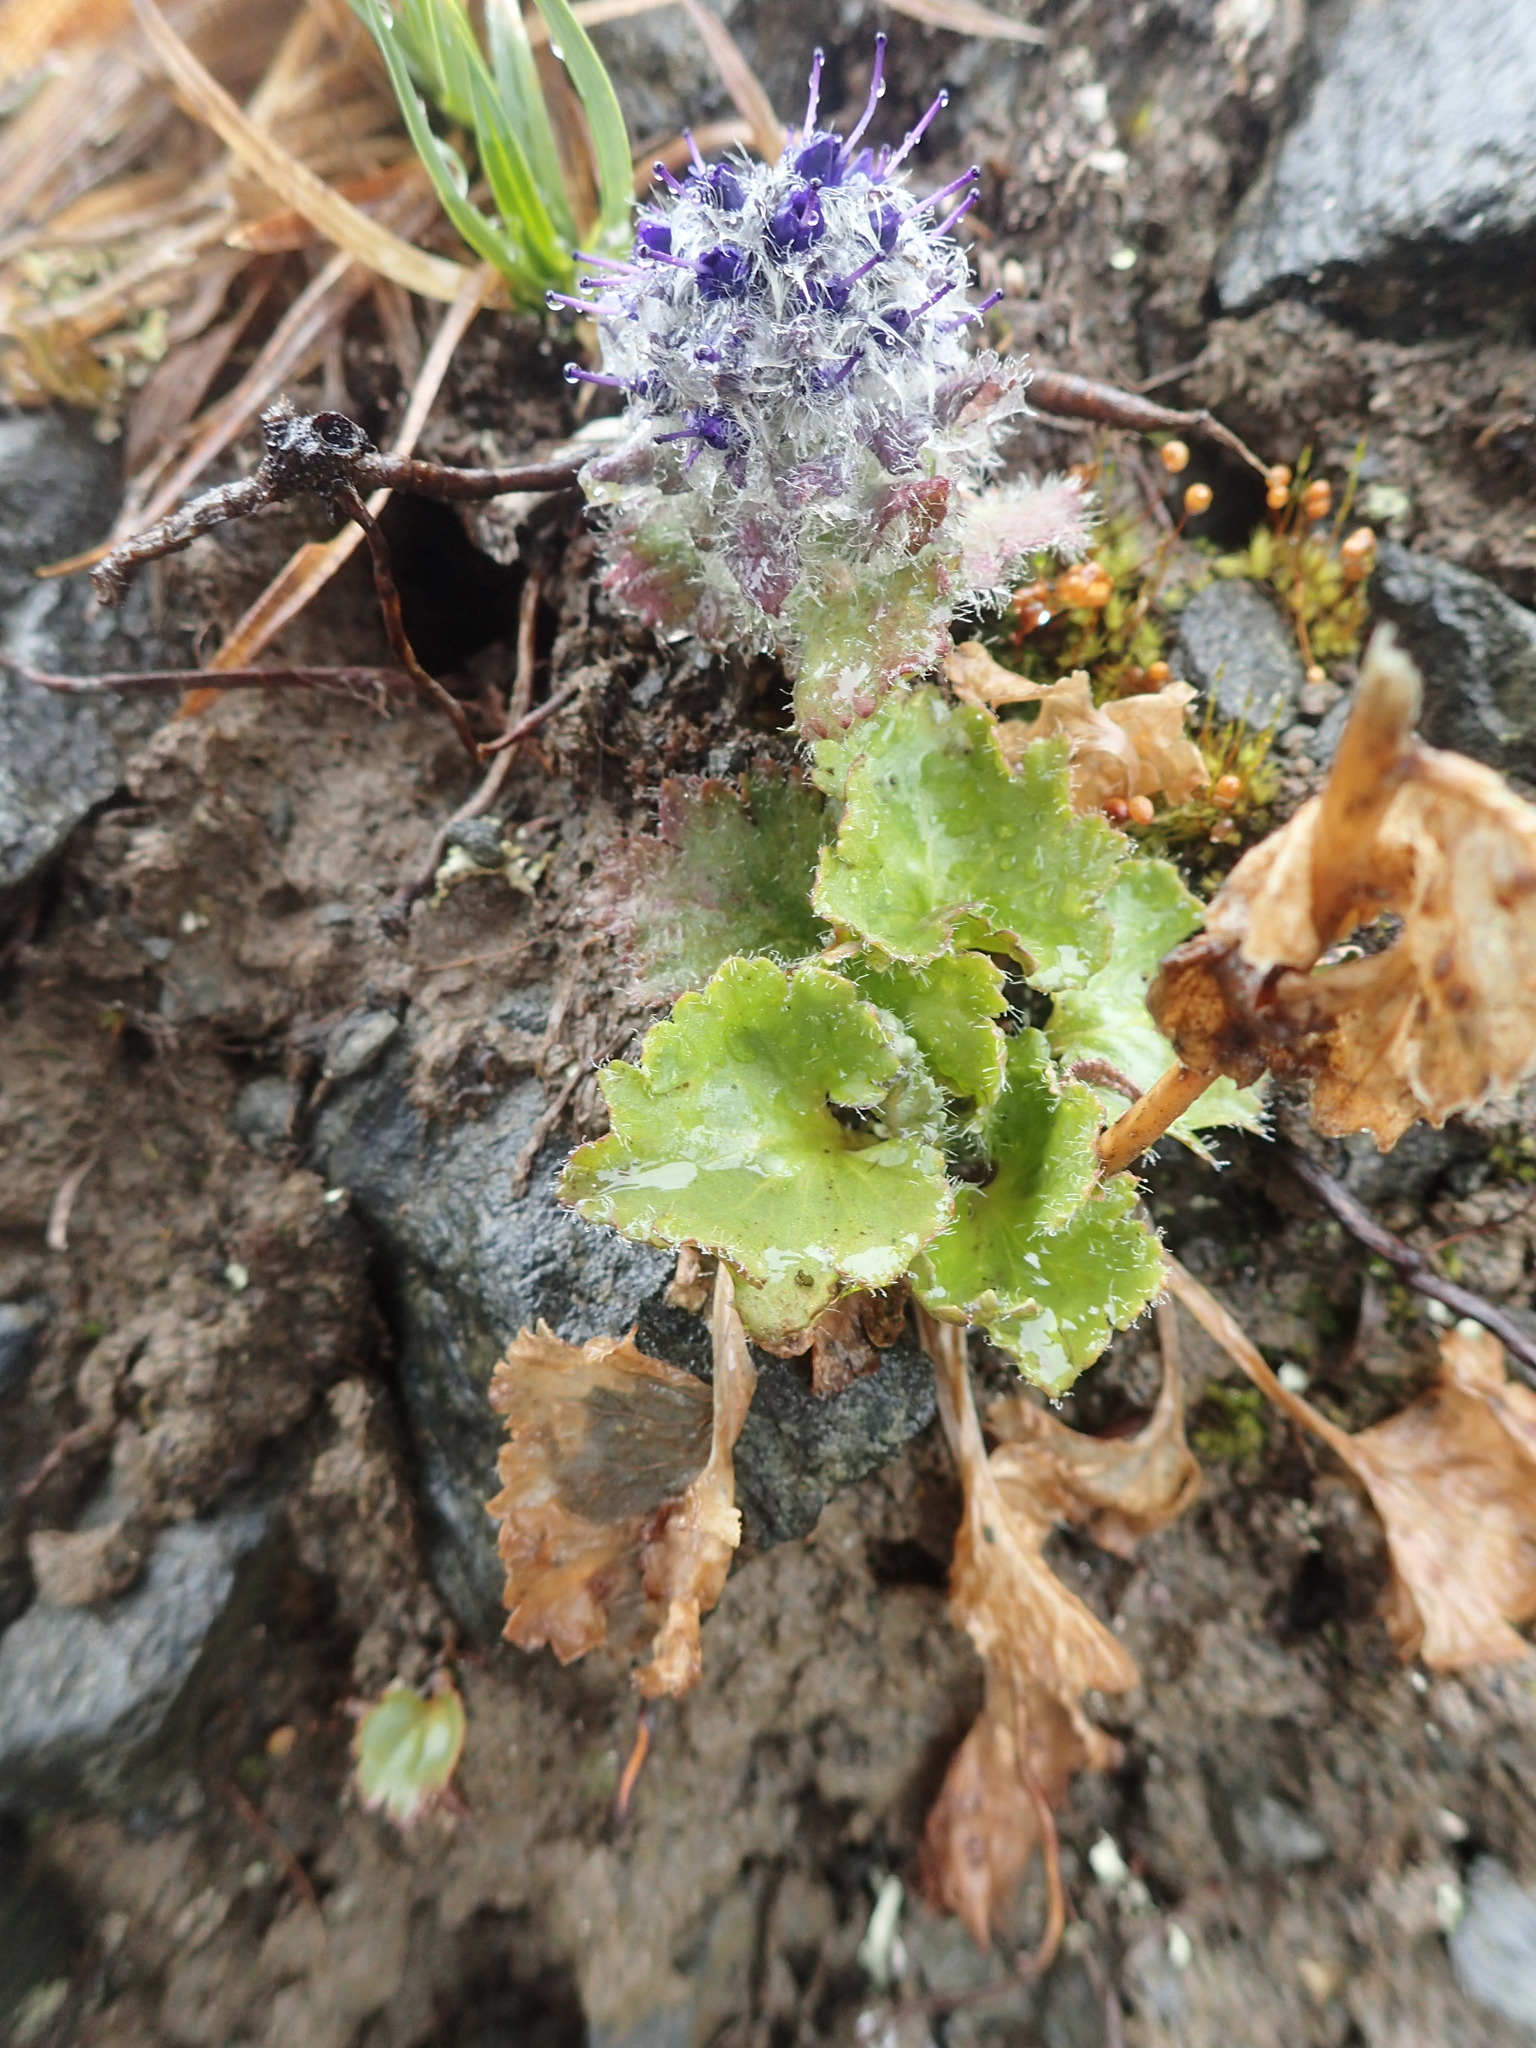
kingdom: Plantae
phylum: Tracheophyta
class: Magnoliopsida
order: Lamiales
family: Plantaginaceae
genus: Synthyris
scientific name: Synthyris borealis
